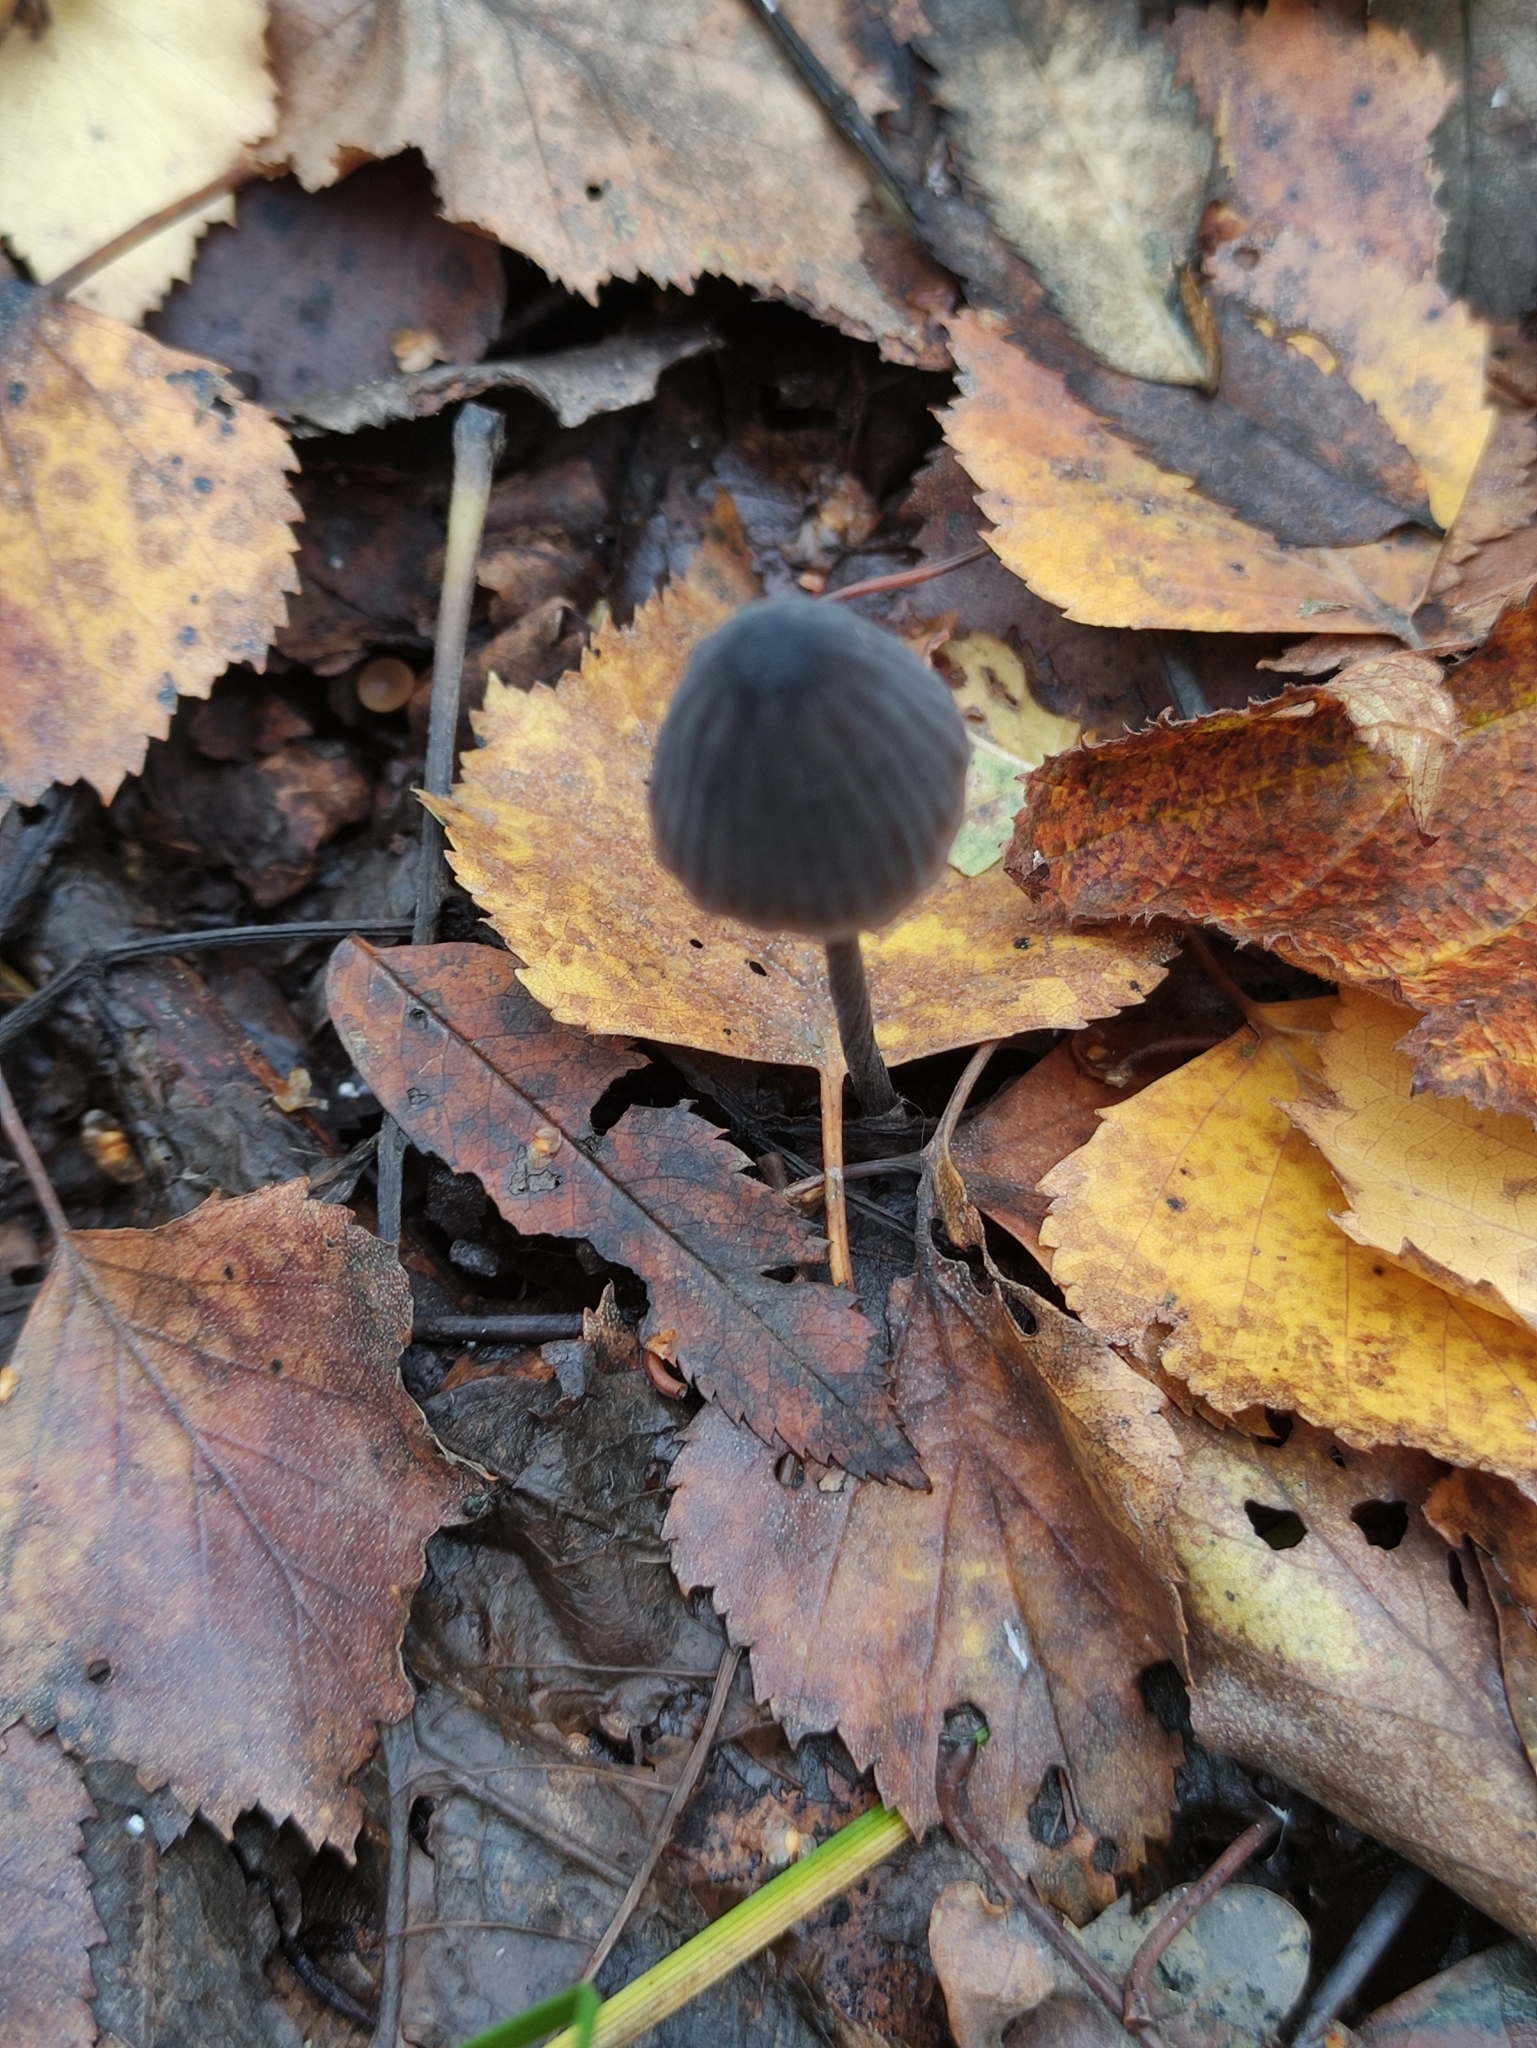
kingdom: Fungi
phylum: Basidiomycota
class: Agaricomycetes
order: Agaricales
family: Mycenaceae
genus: Mycena
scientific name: Mycena galopus
